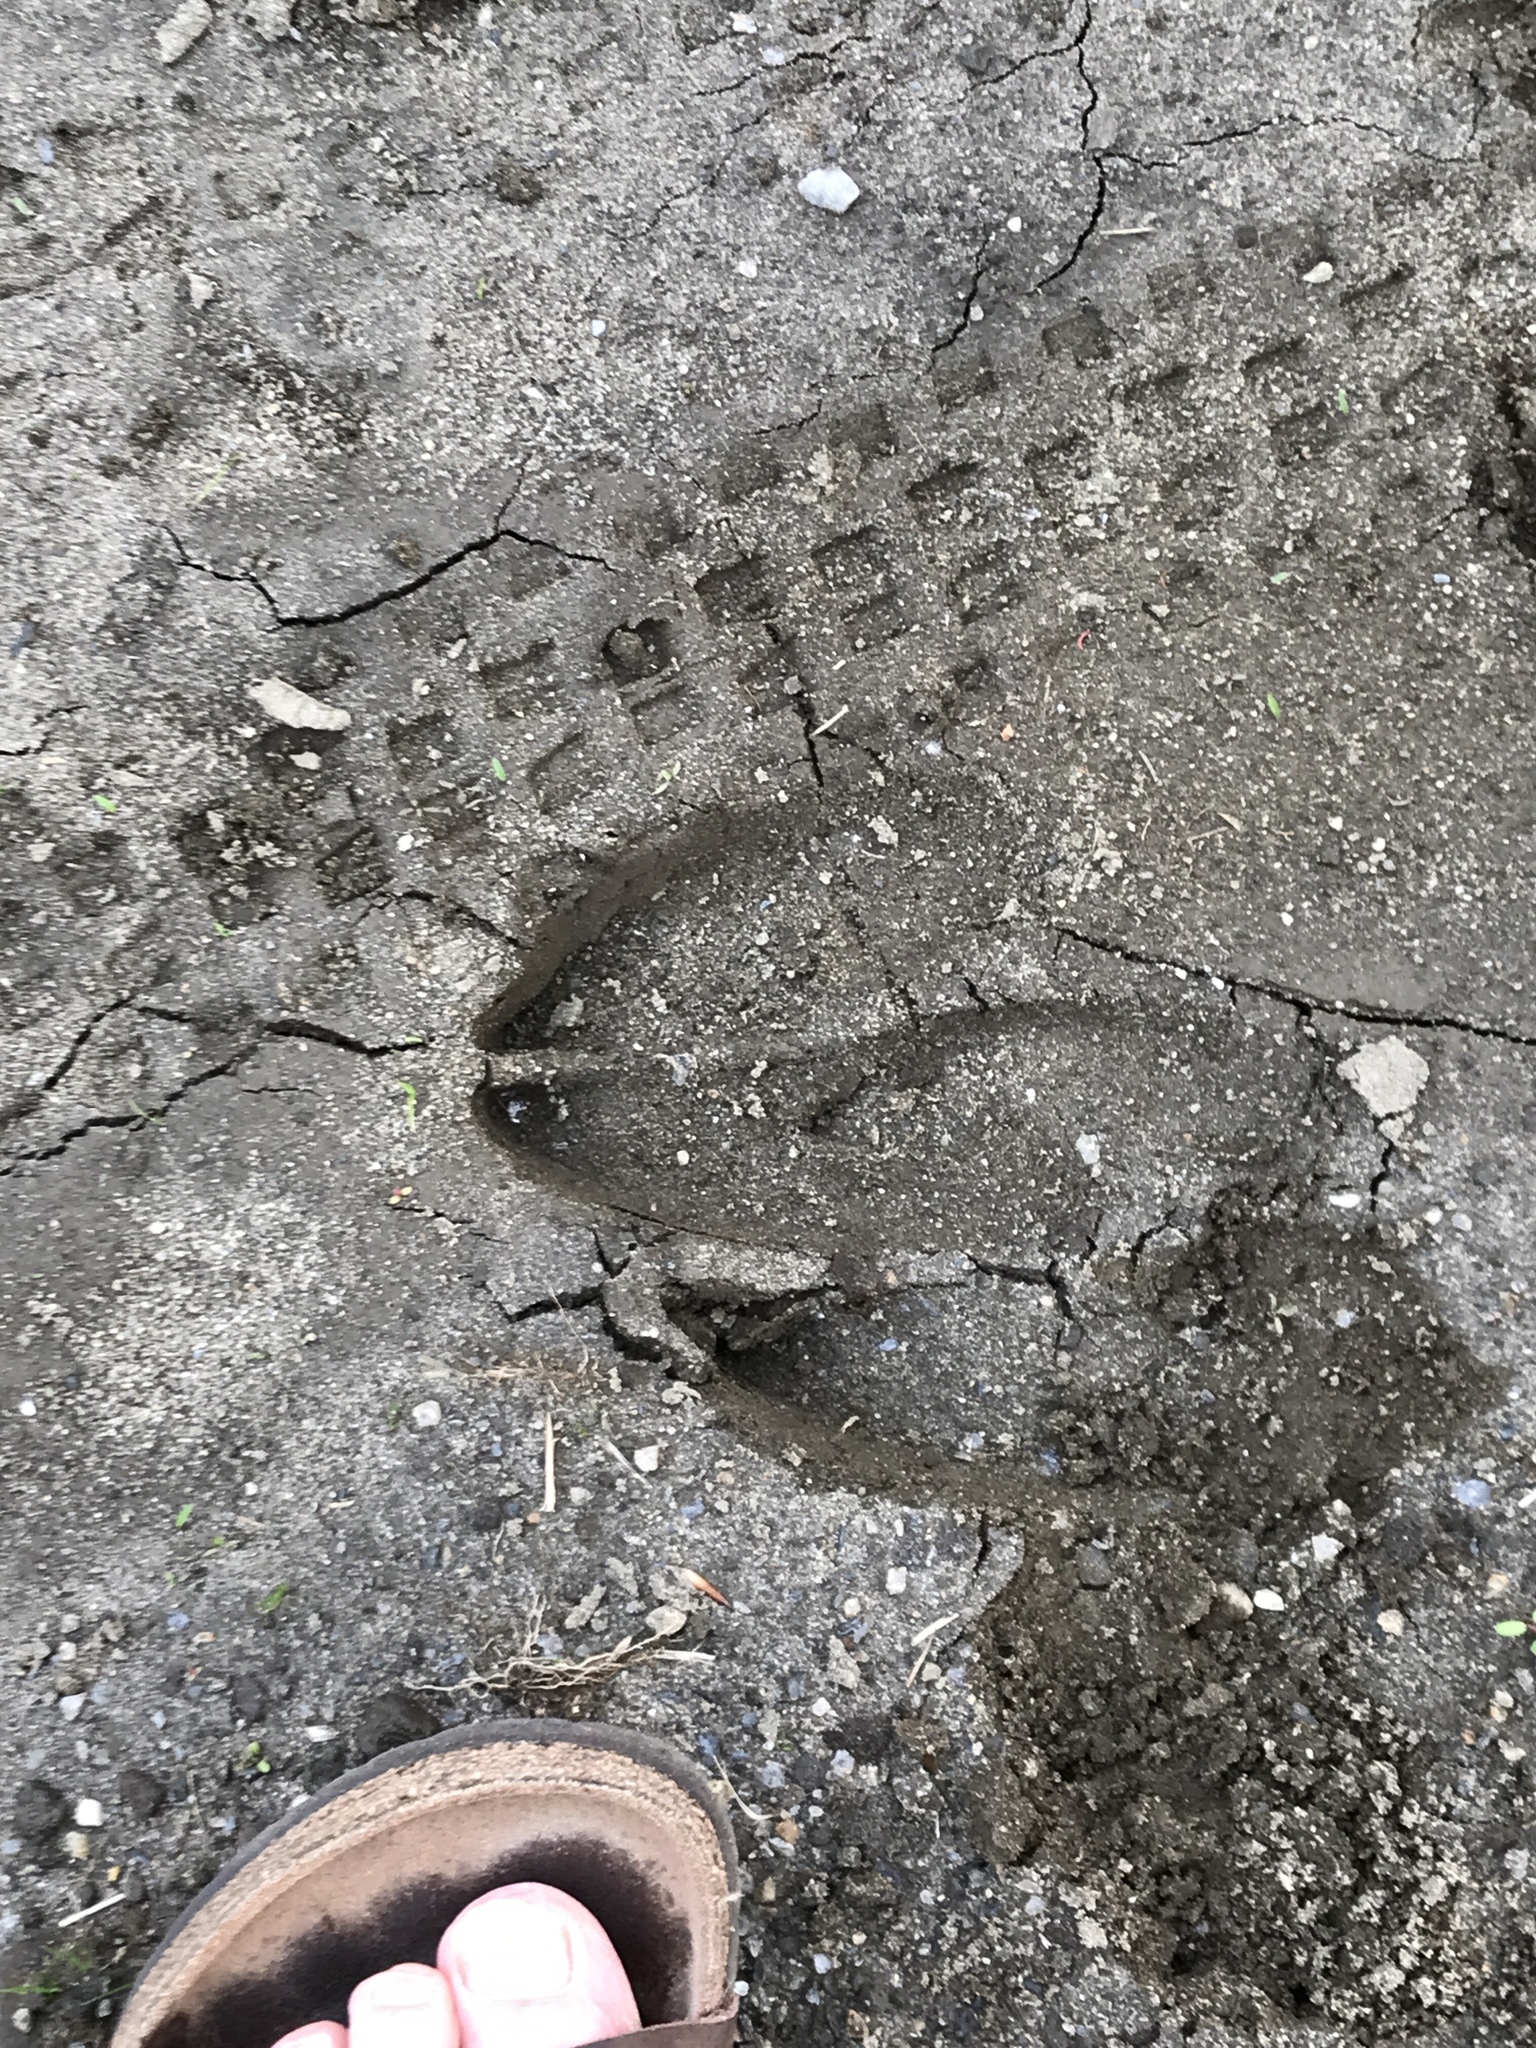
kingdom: Animalia
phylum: Chordata
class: Mammalia
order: Artiodactyla
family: Cervidae
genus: Alces
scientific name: Alces alces
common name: Moose
